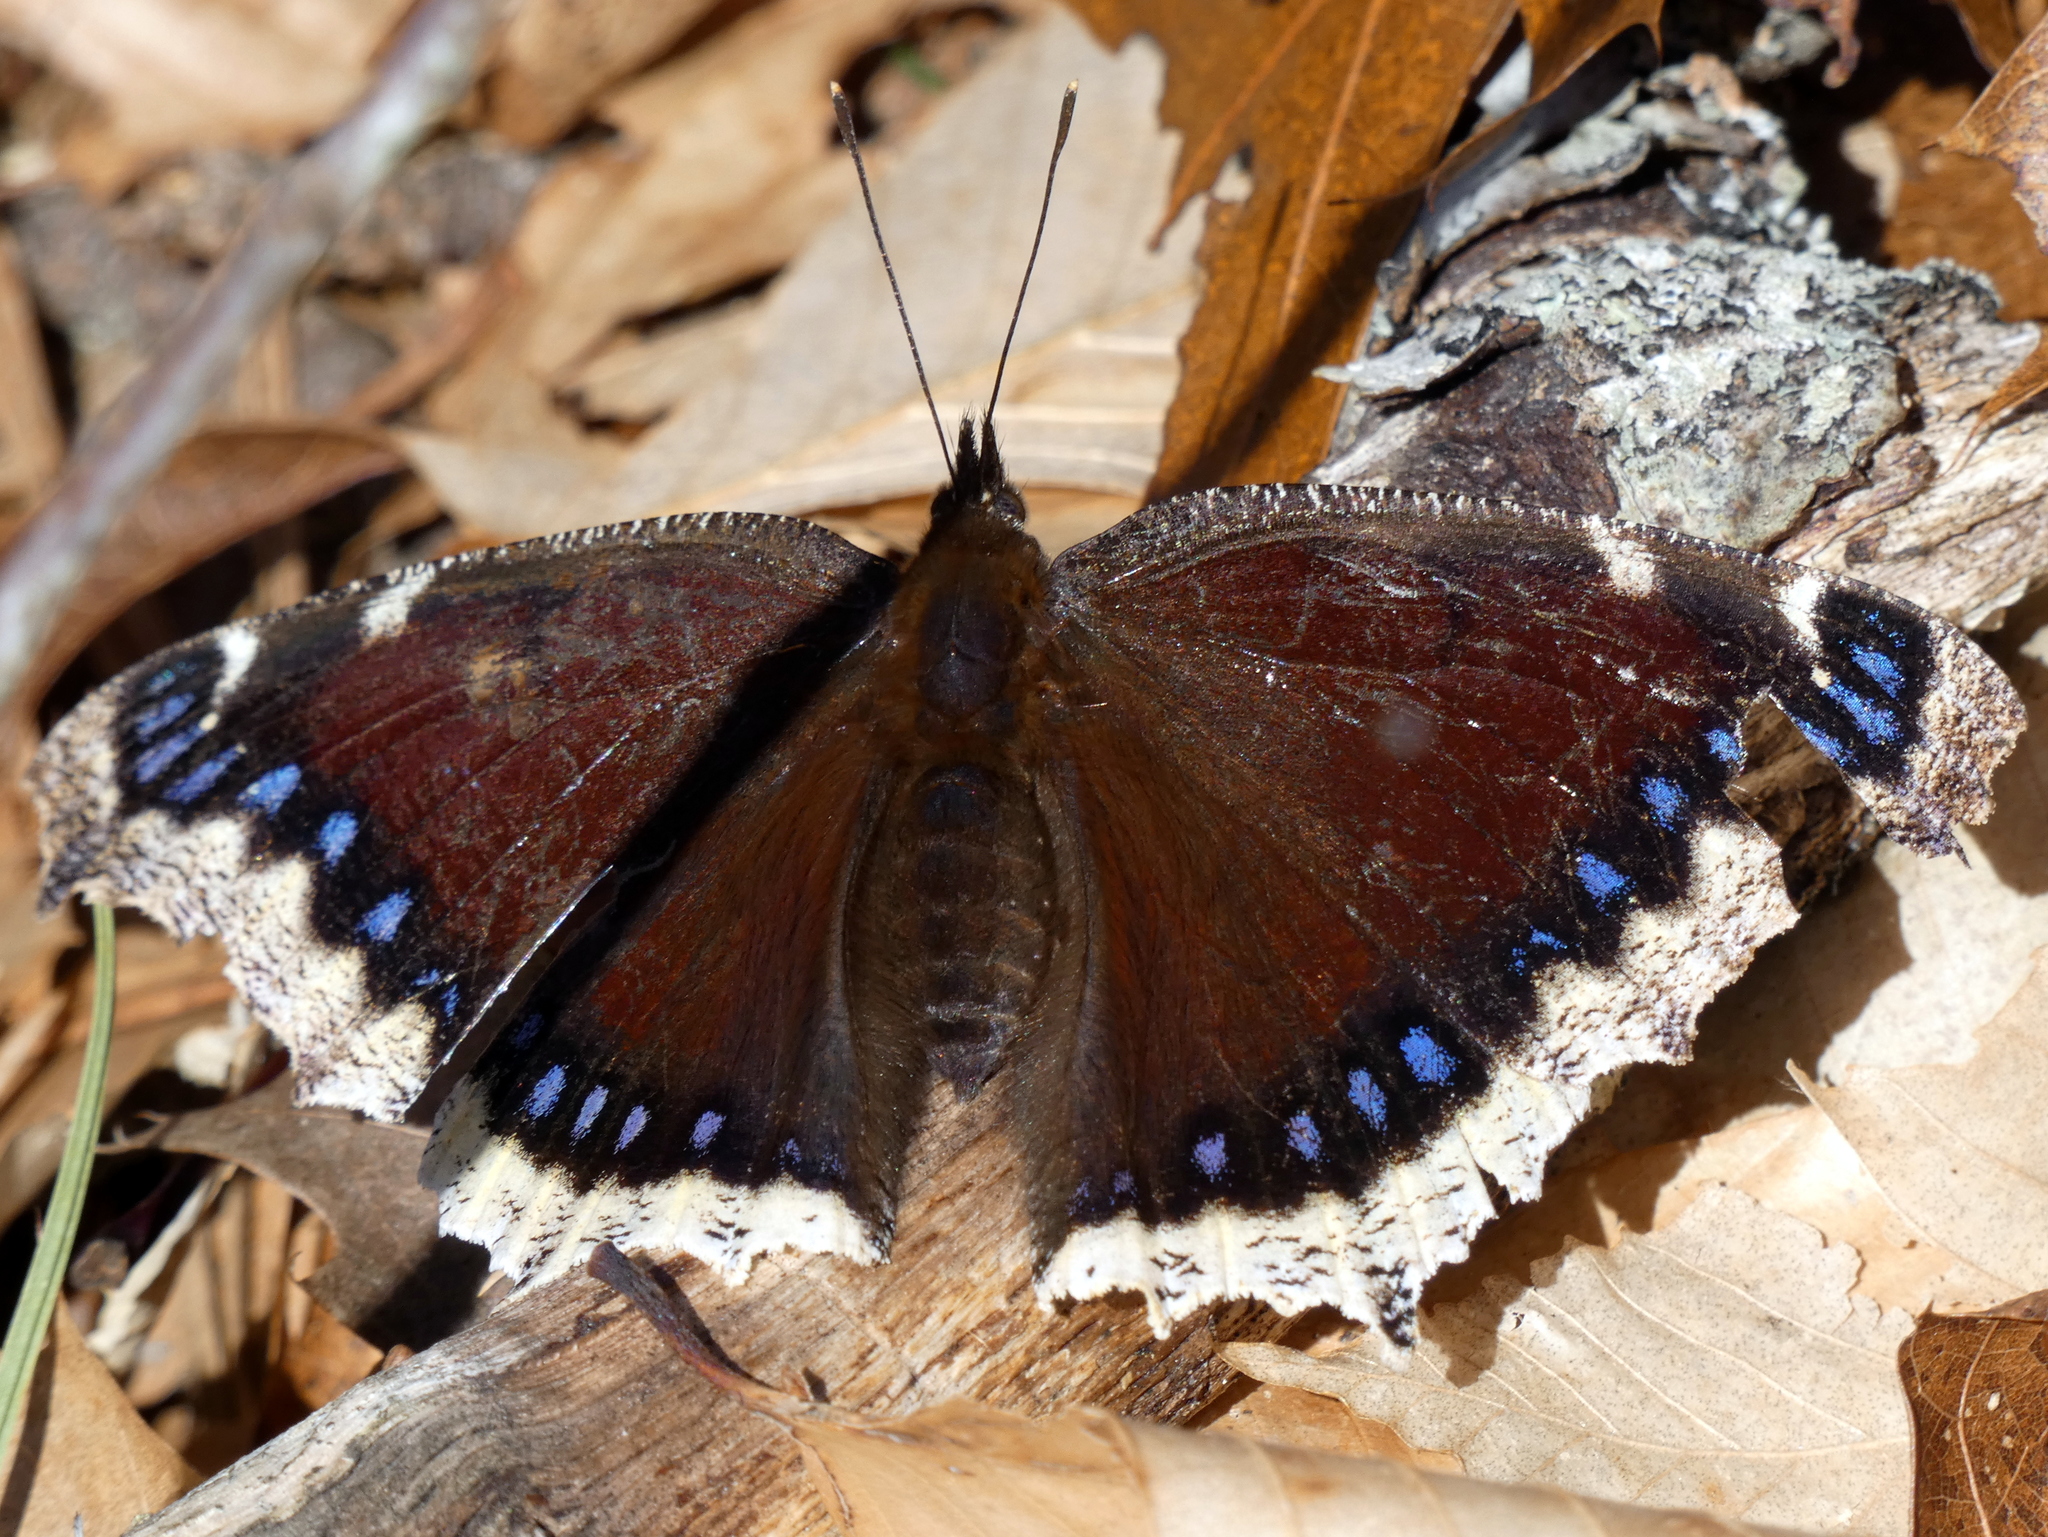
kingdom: Animalia
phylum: Arthropoda
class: Insecta
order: Lepidoptera
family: Nymphalidae
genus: Nymphalis
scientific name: Nymphalis antiopa
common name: Camberwell beauty
